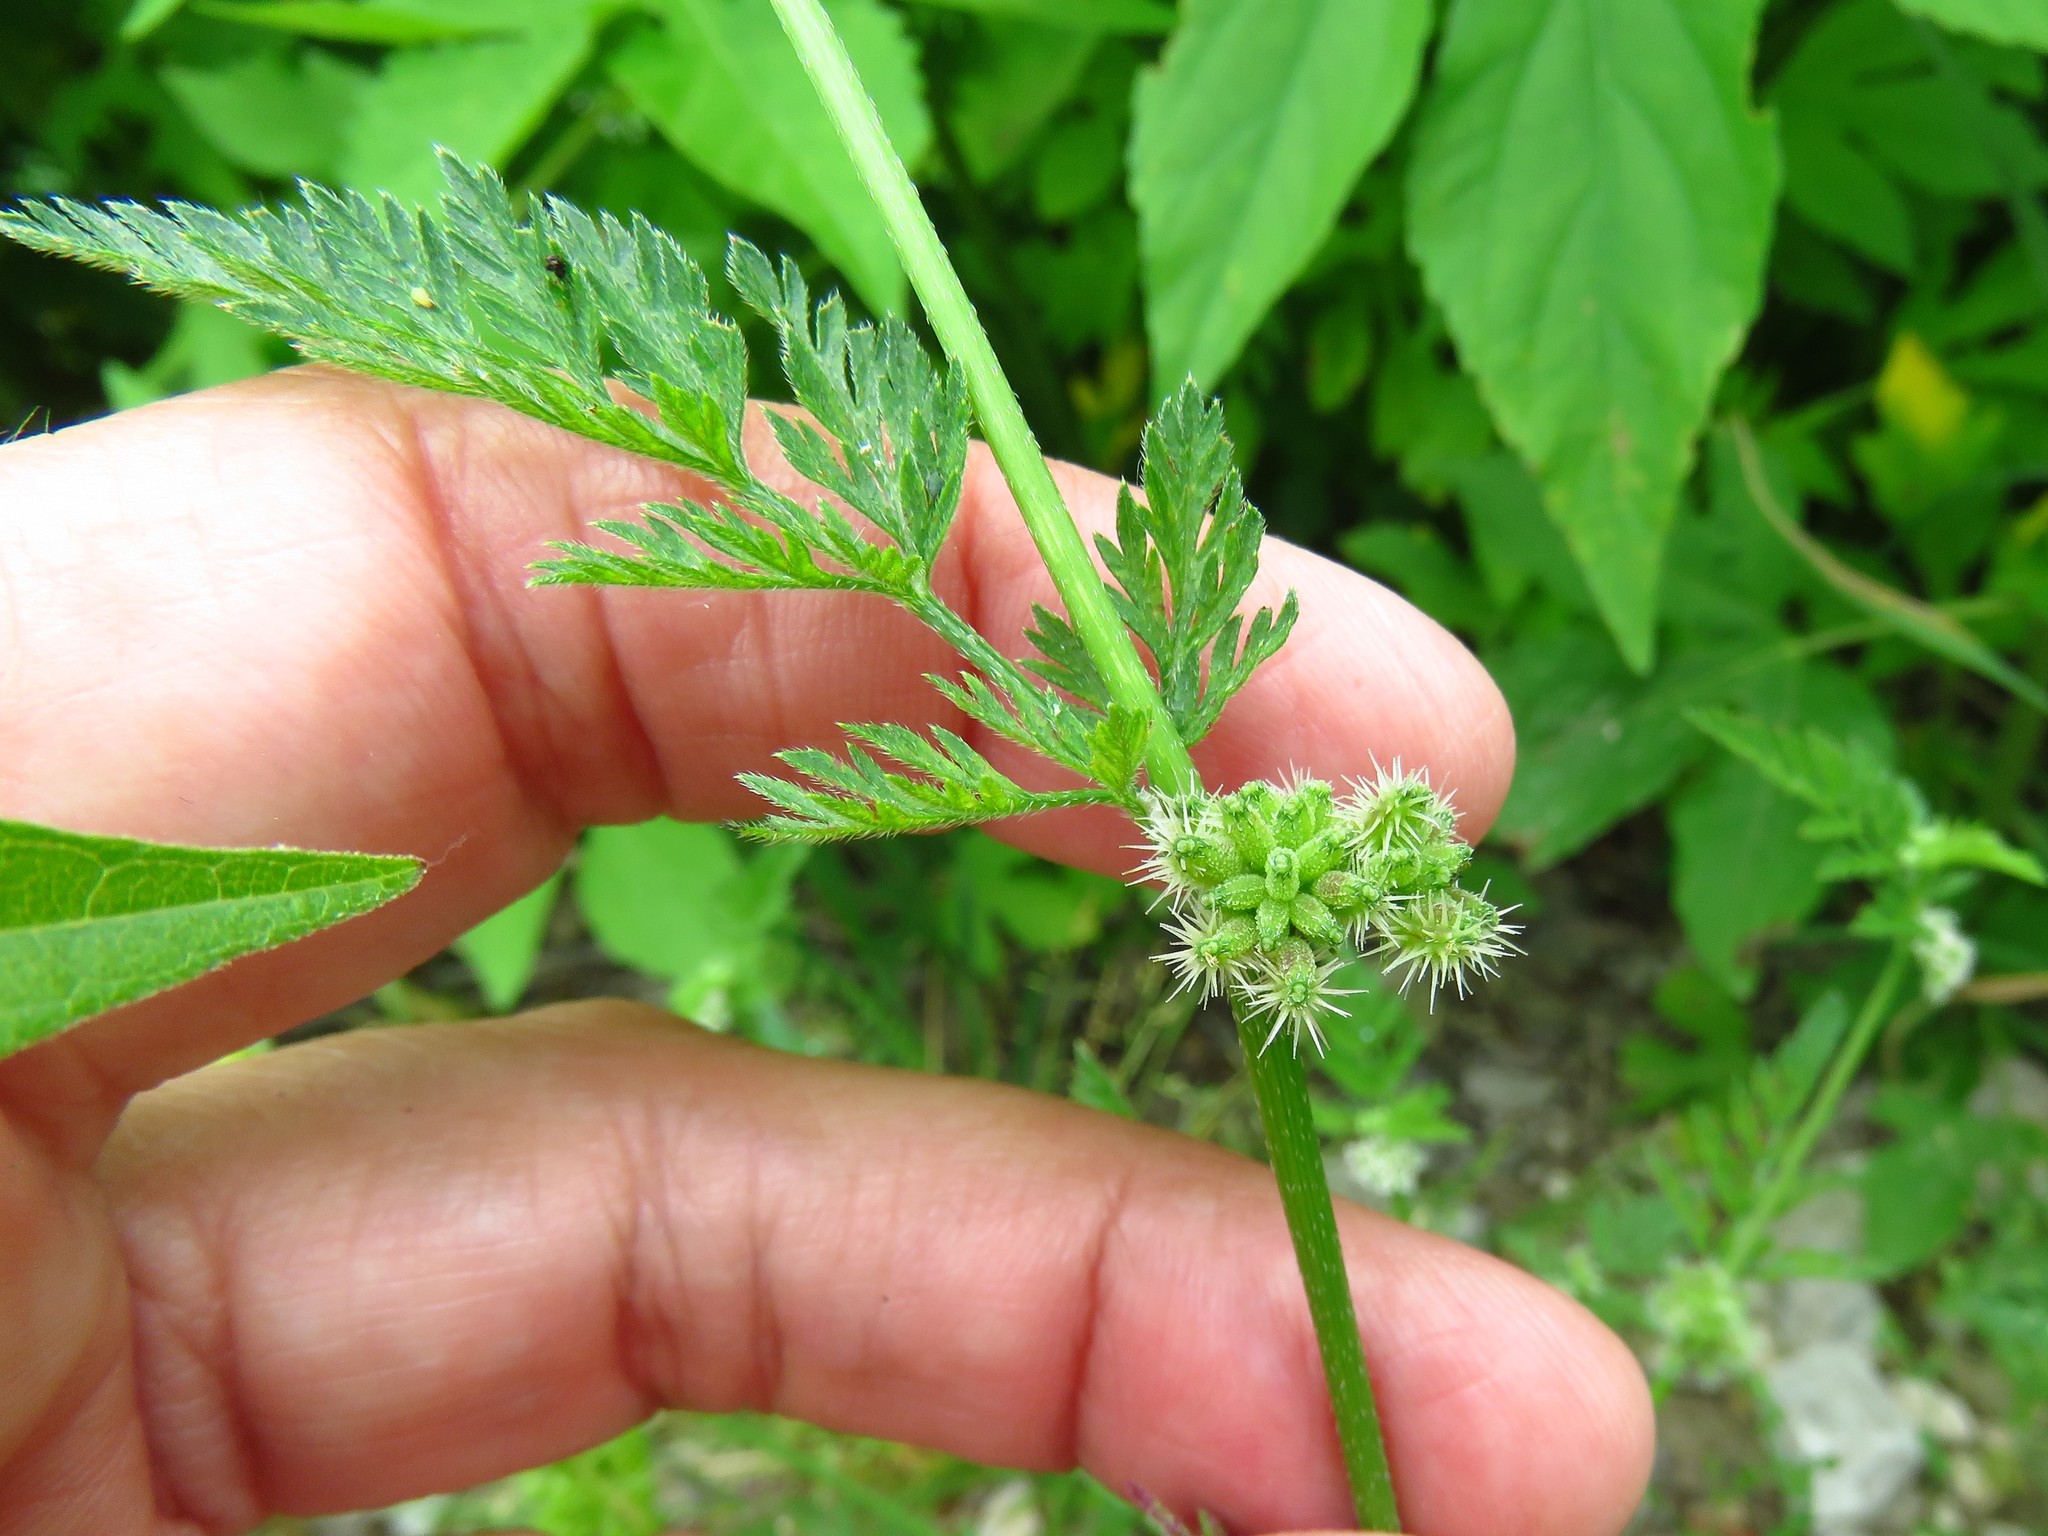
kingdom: Plantae
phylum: Tracheophyta
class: Magnoliopsida
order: Apiales
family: Apiaceae
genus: Torilis
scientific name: Torilis nodosa
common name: Knotted hedge-parsley
